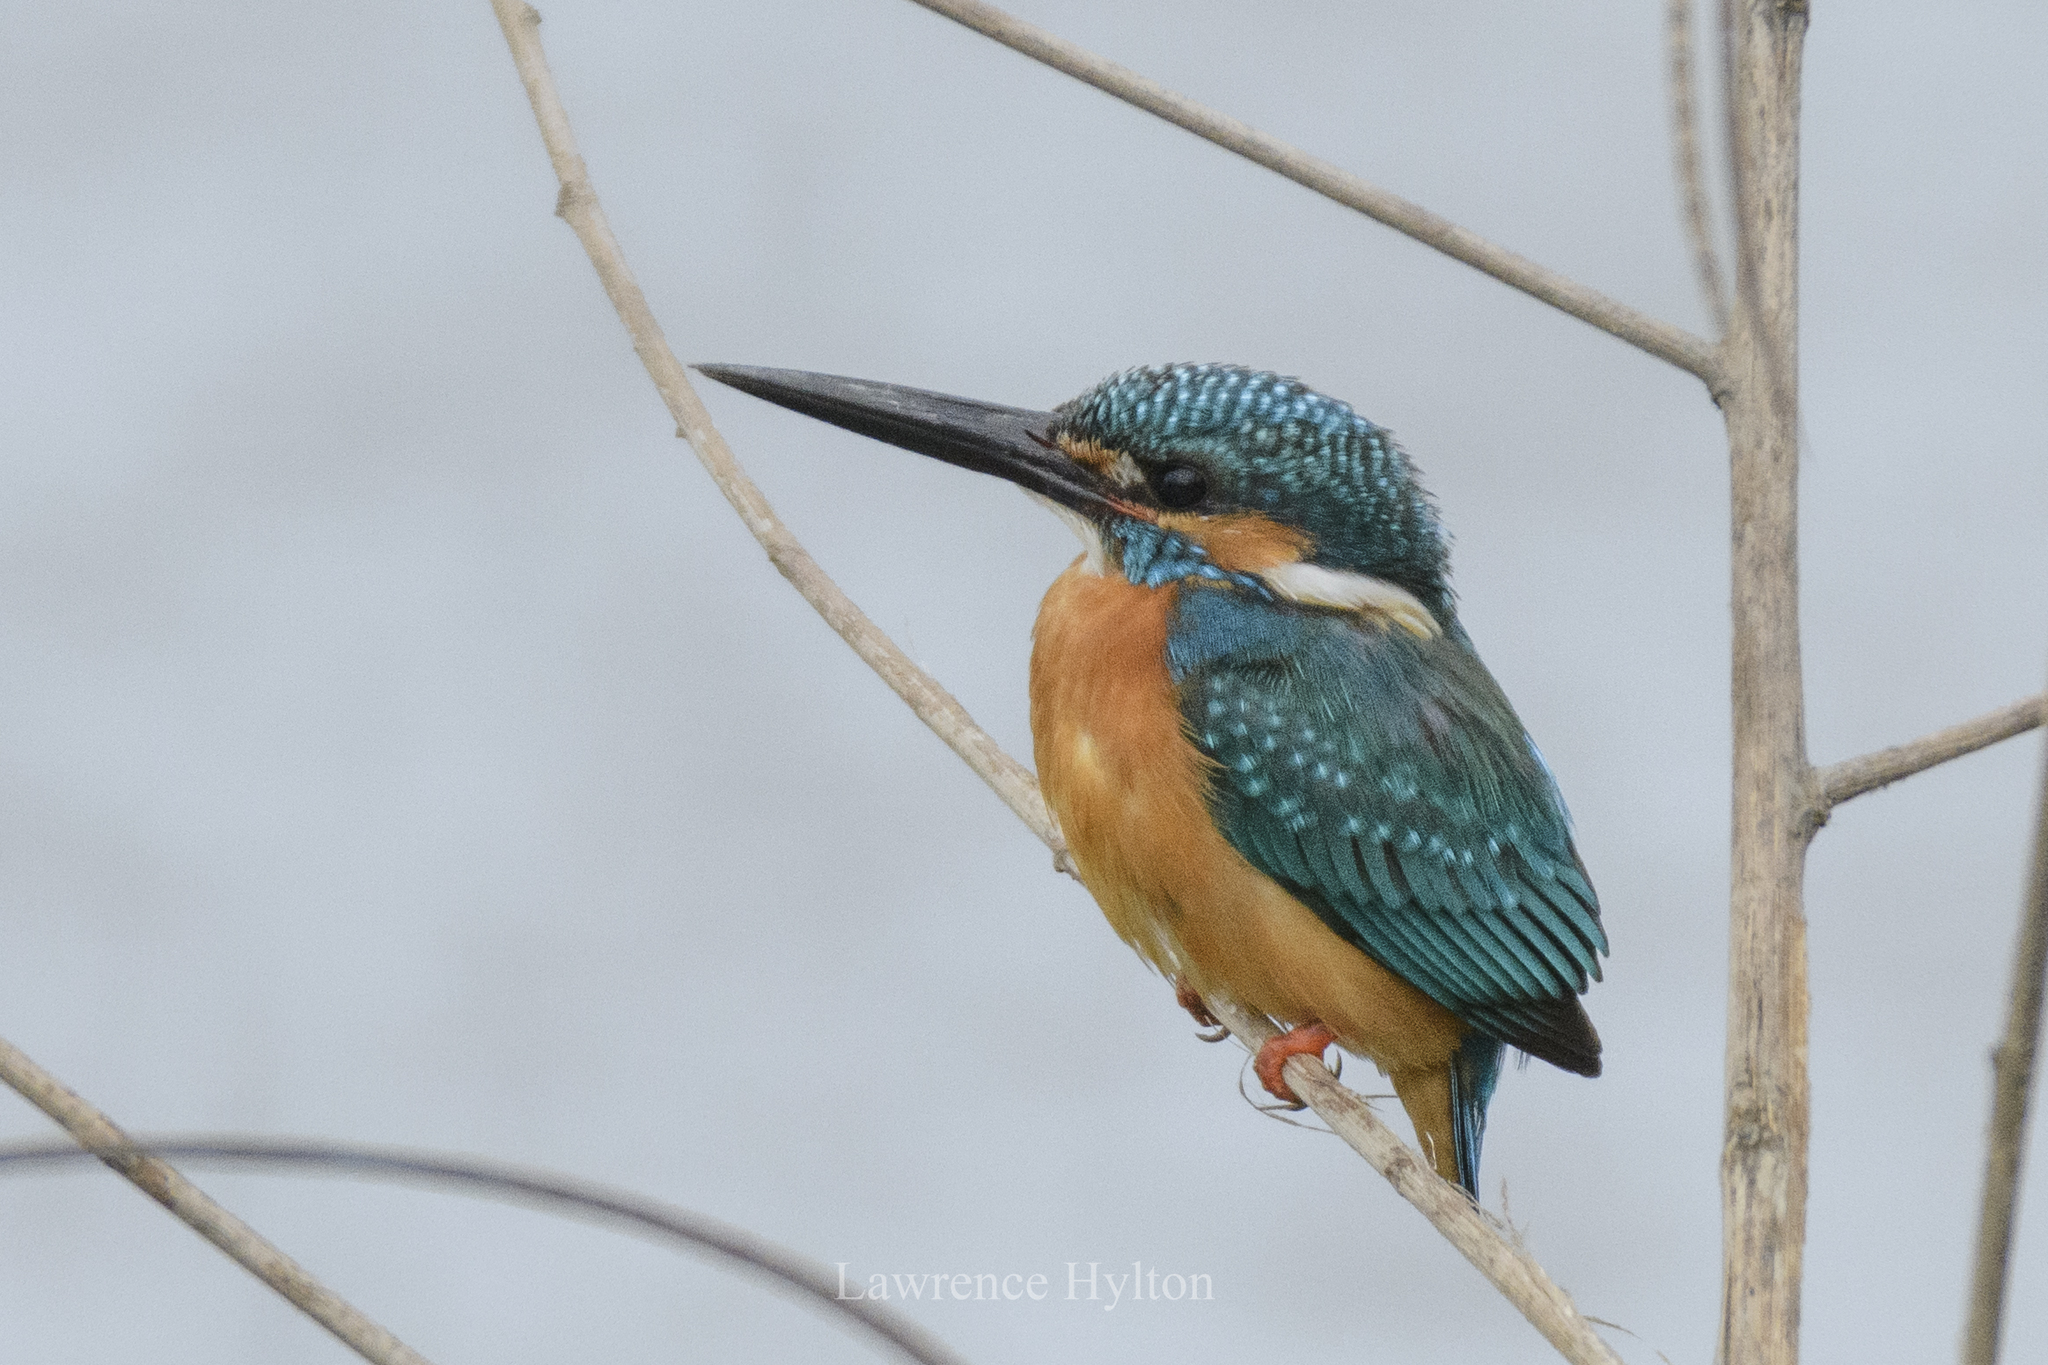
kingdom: Animalia
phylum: Chordata
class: Aves
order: Coraciiformes
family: Alcedinidae
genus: Alcedo
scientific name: Alcedo atthis
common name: Common kingfisher
